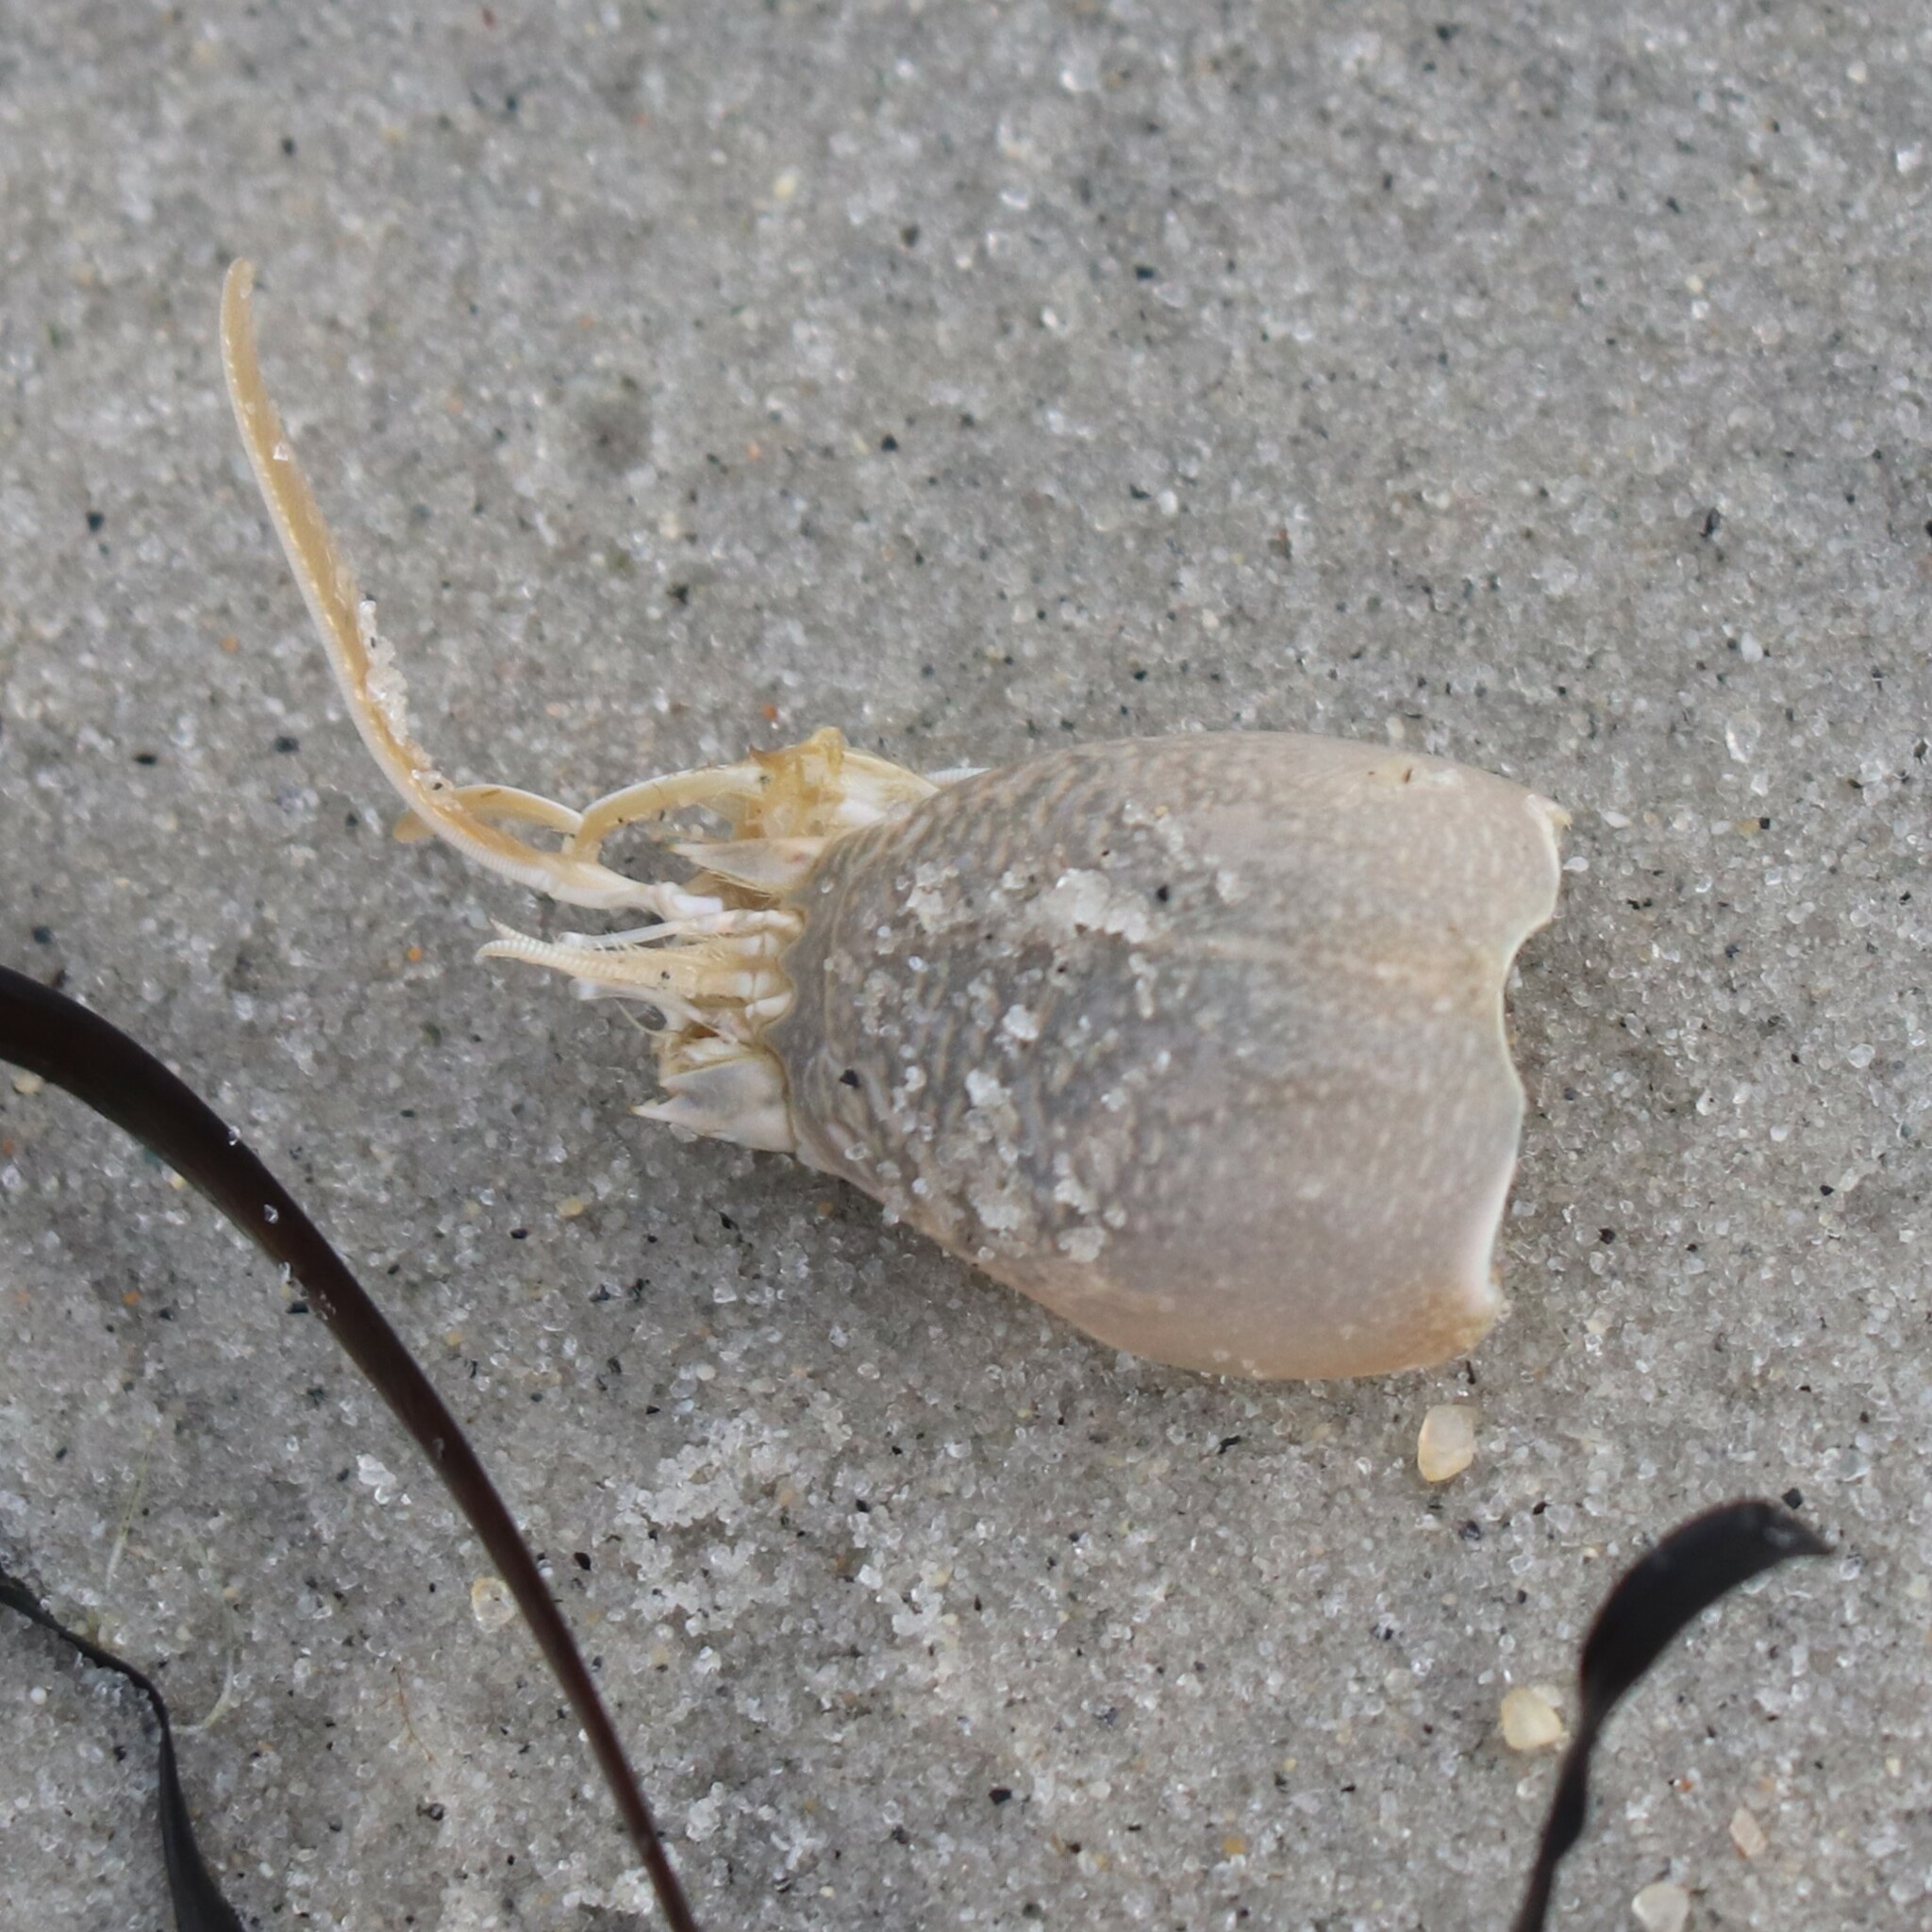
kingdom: Animalia
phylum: Arthropoda
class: Malacostraca
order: Decapoda
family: Hippidae
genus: Emerita
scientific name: Emerita talpoida
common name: Atlantic sand crab
